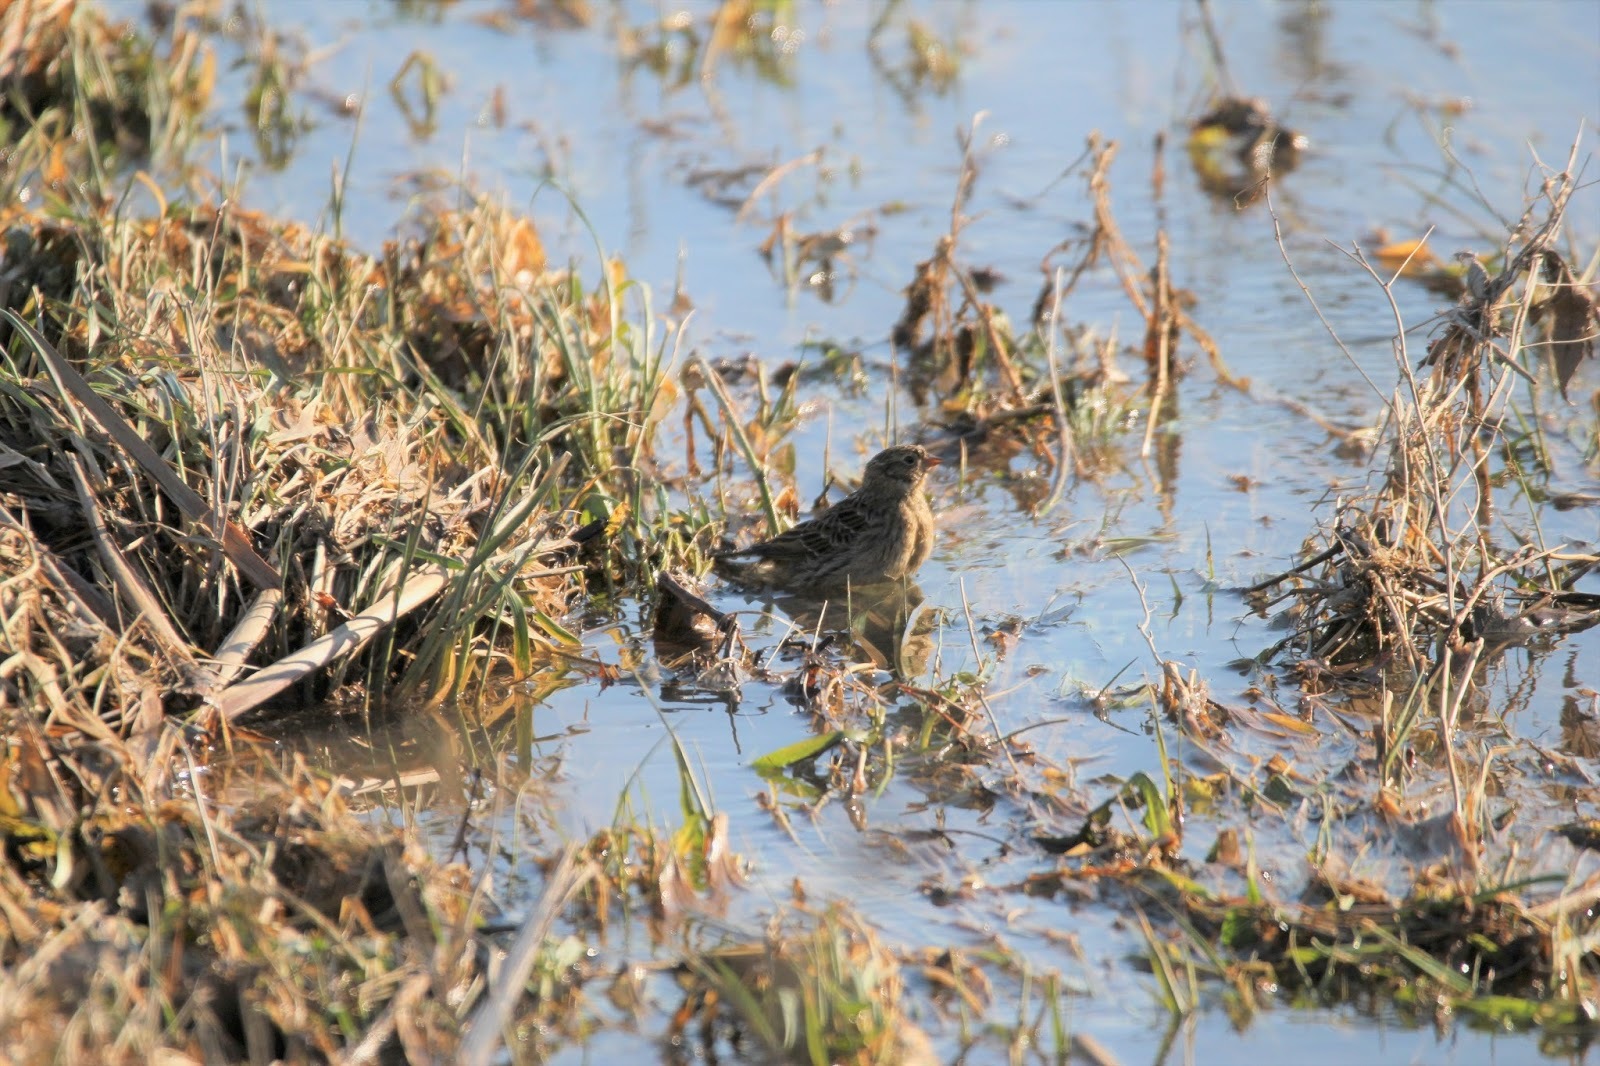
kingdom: Animalia
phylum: Chordata
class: Aves
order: Passeriformes
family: Calcariidae
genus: Calcarius
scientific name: Calcarius pictus
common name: Smith's longspur
